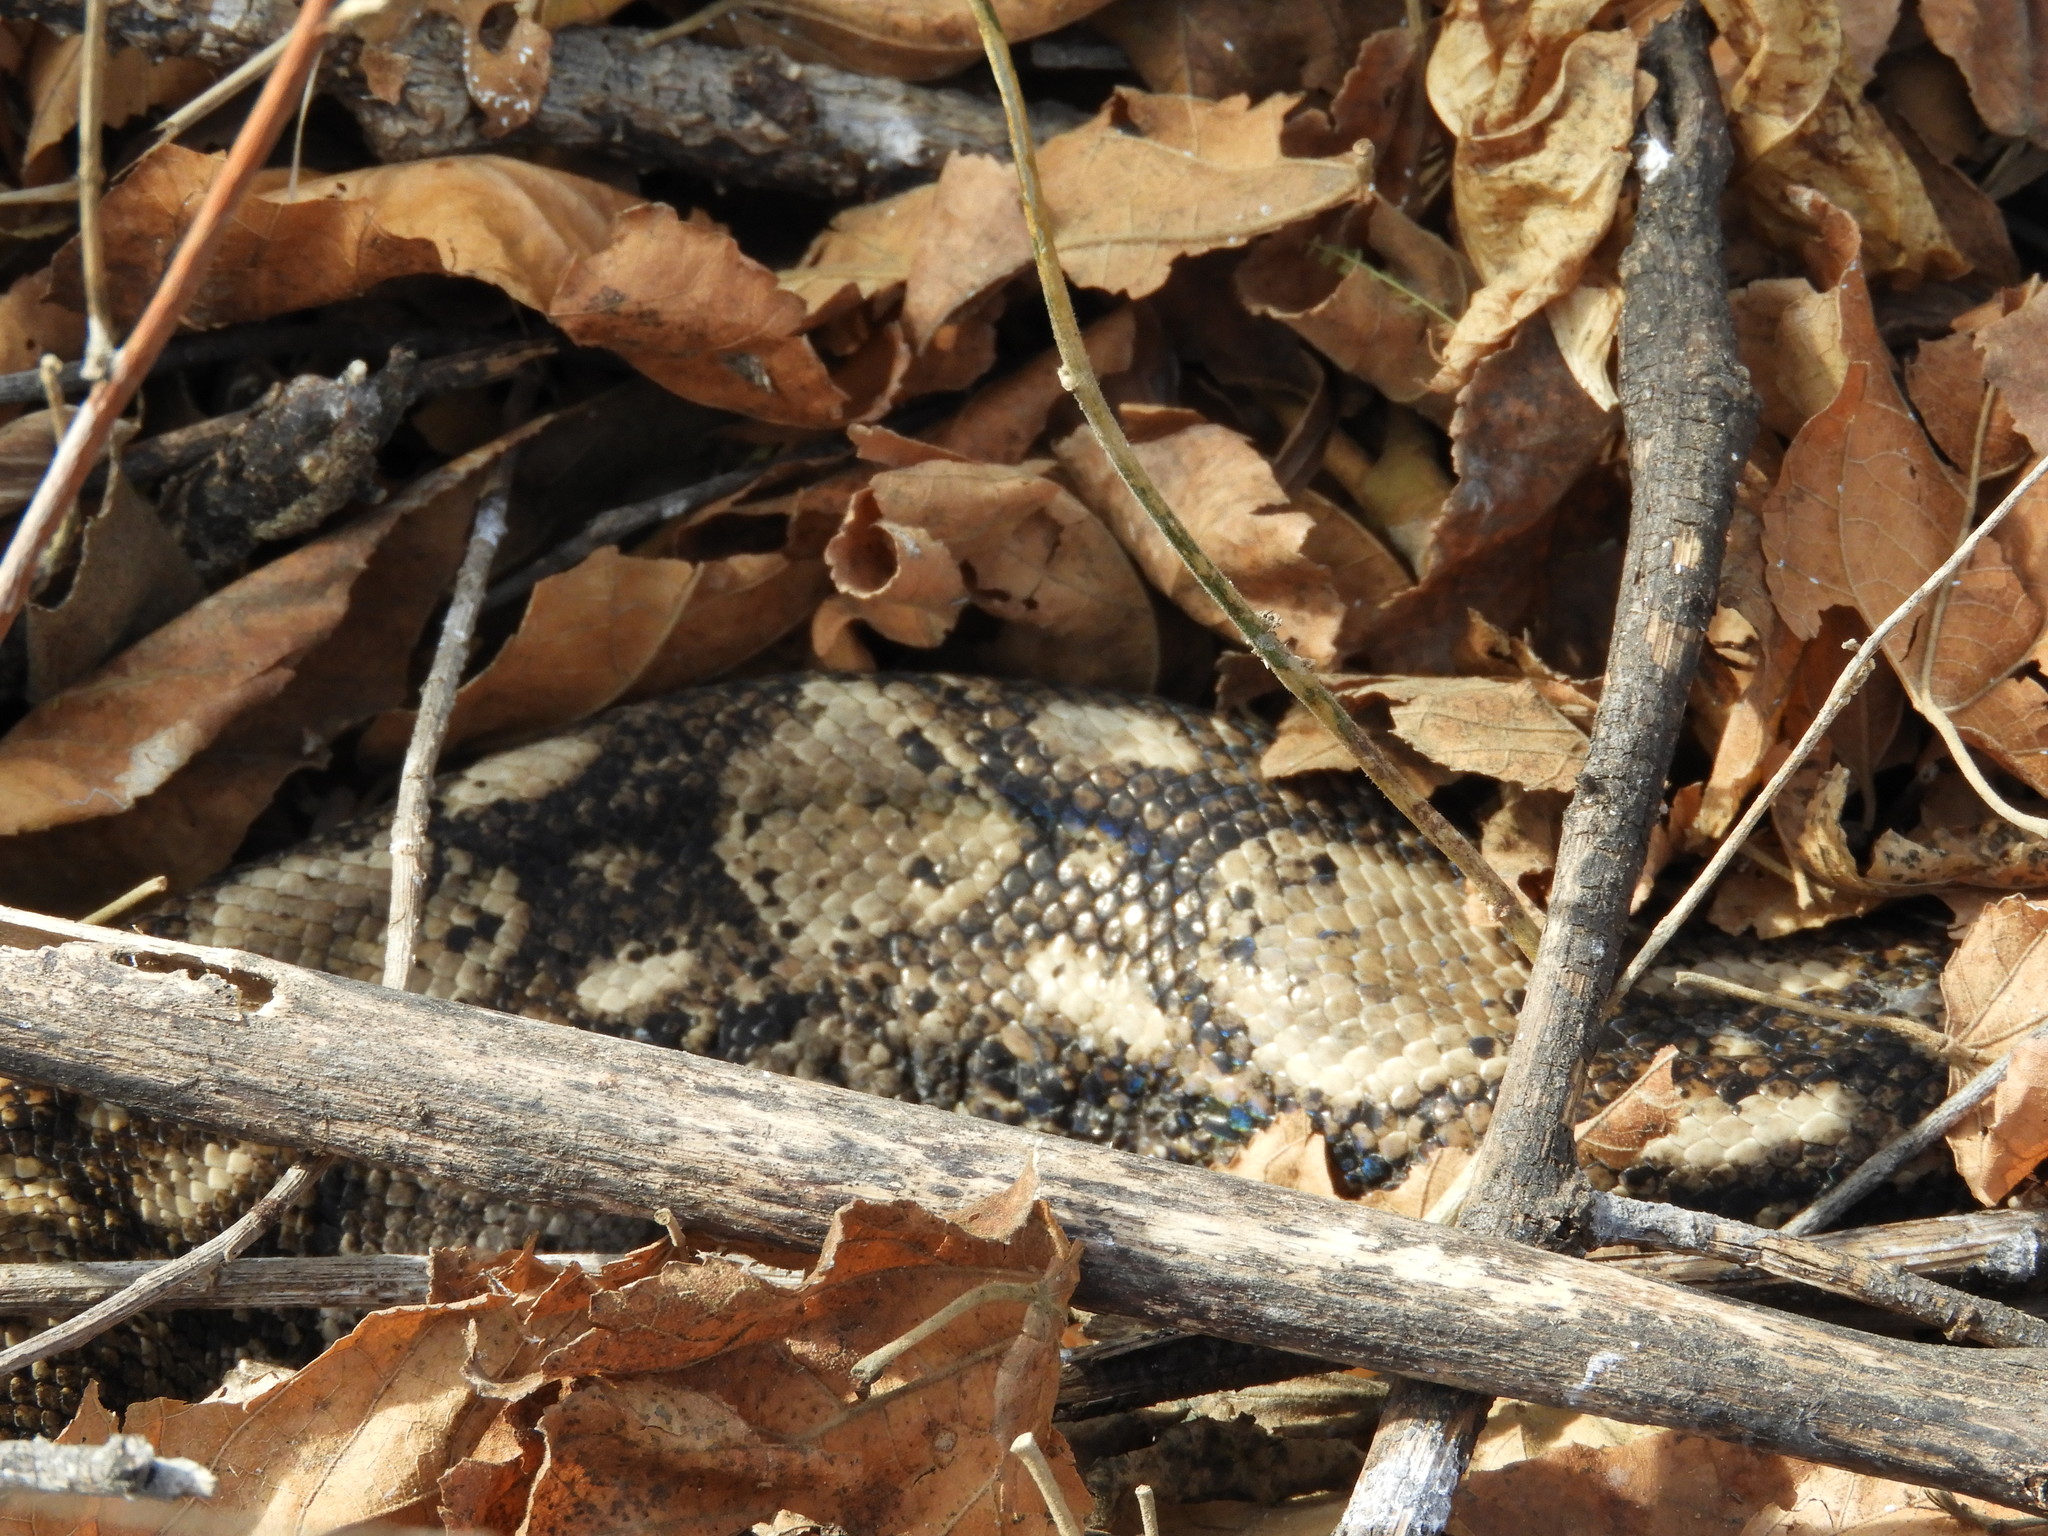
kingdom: Animalia
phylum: Chordata
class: Squamata
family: Boidae
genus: Boa
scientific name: Boa
